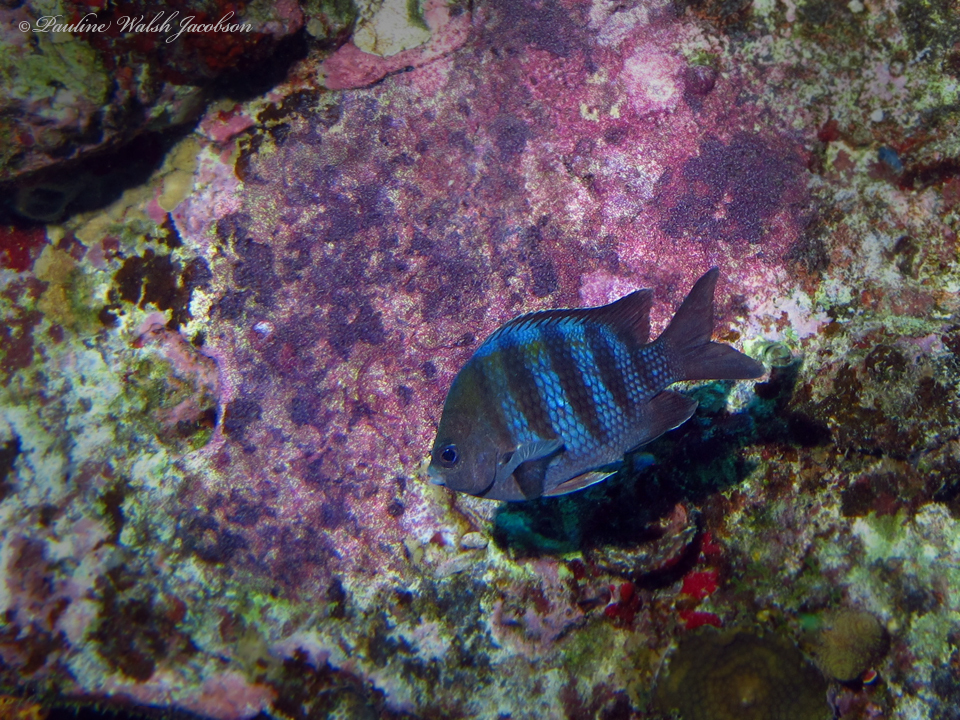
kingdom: Animalia
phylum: Chordata
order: Perciformes
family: Pomacentridae
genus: Abudefduf
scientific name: Abudefduf saxatilis
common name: Sergeant major
